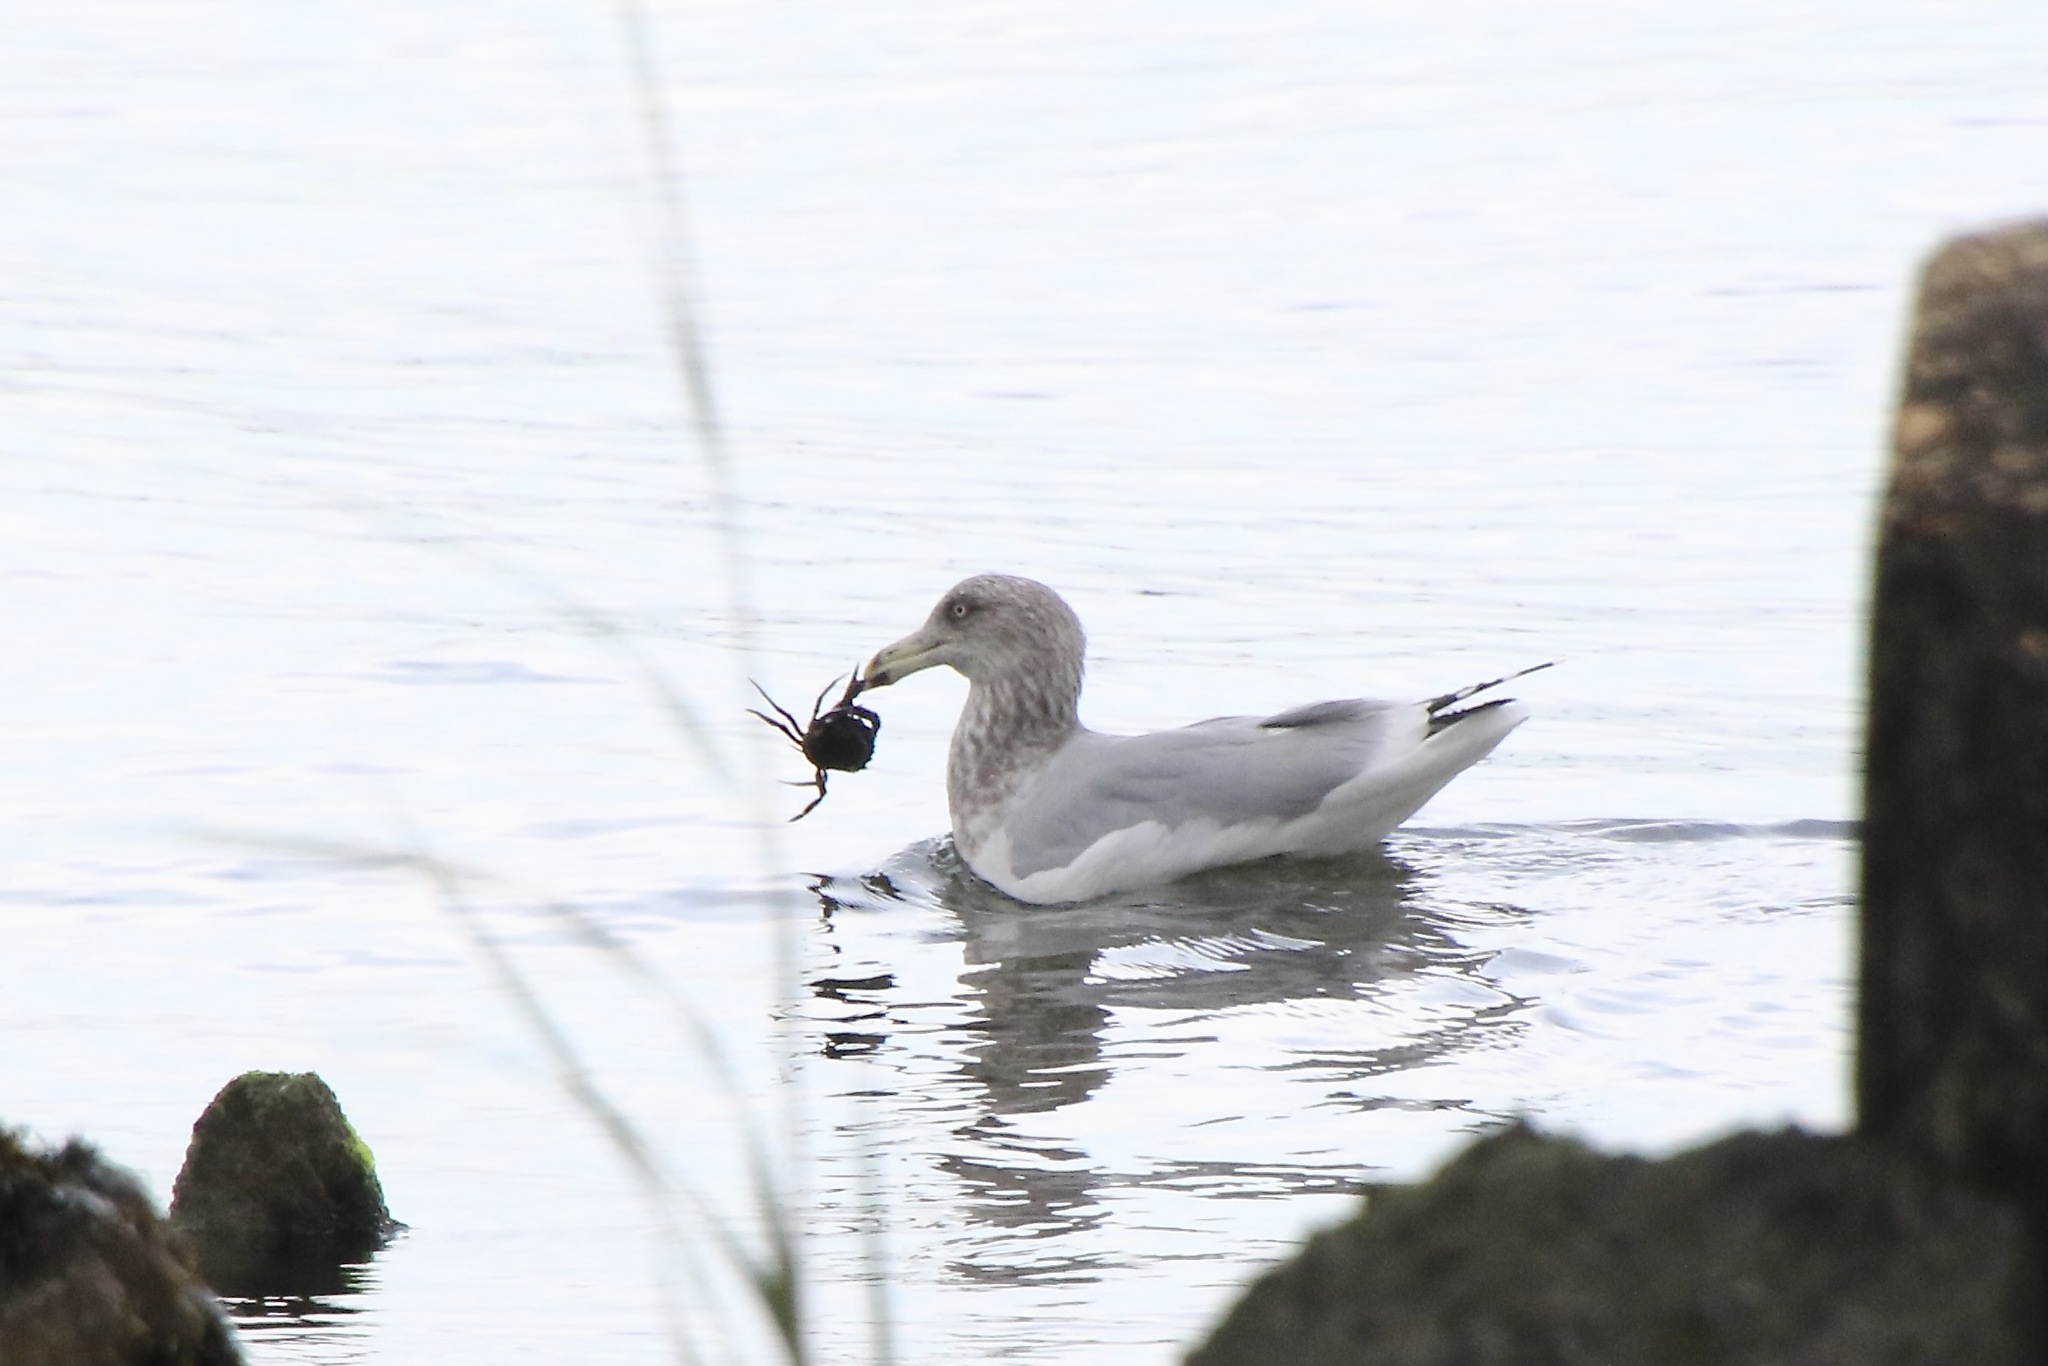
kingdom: Animalia
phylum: Chordata
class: Aves
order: Charadriiformes
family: Laridae
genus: Larus
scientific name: Larus argentatus
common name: Herring gull
